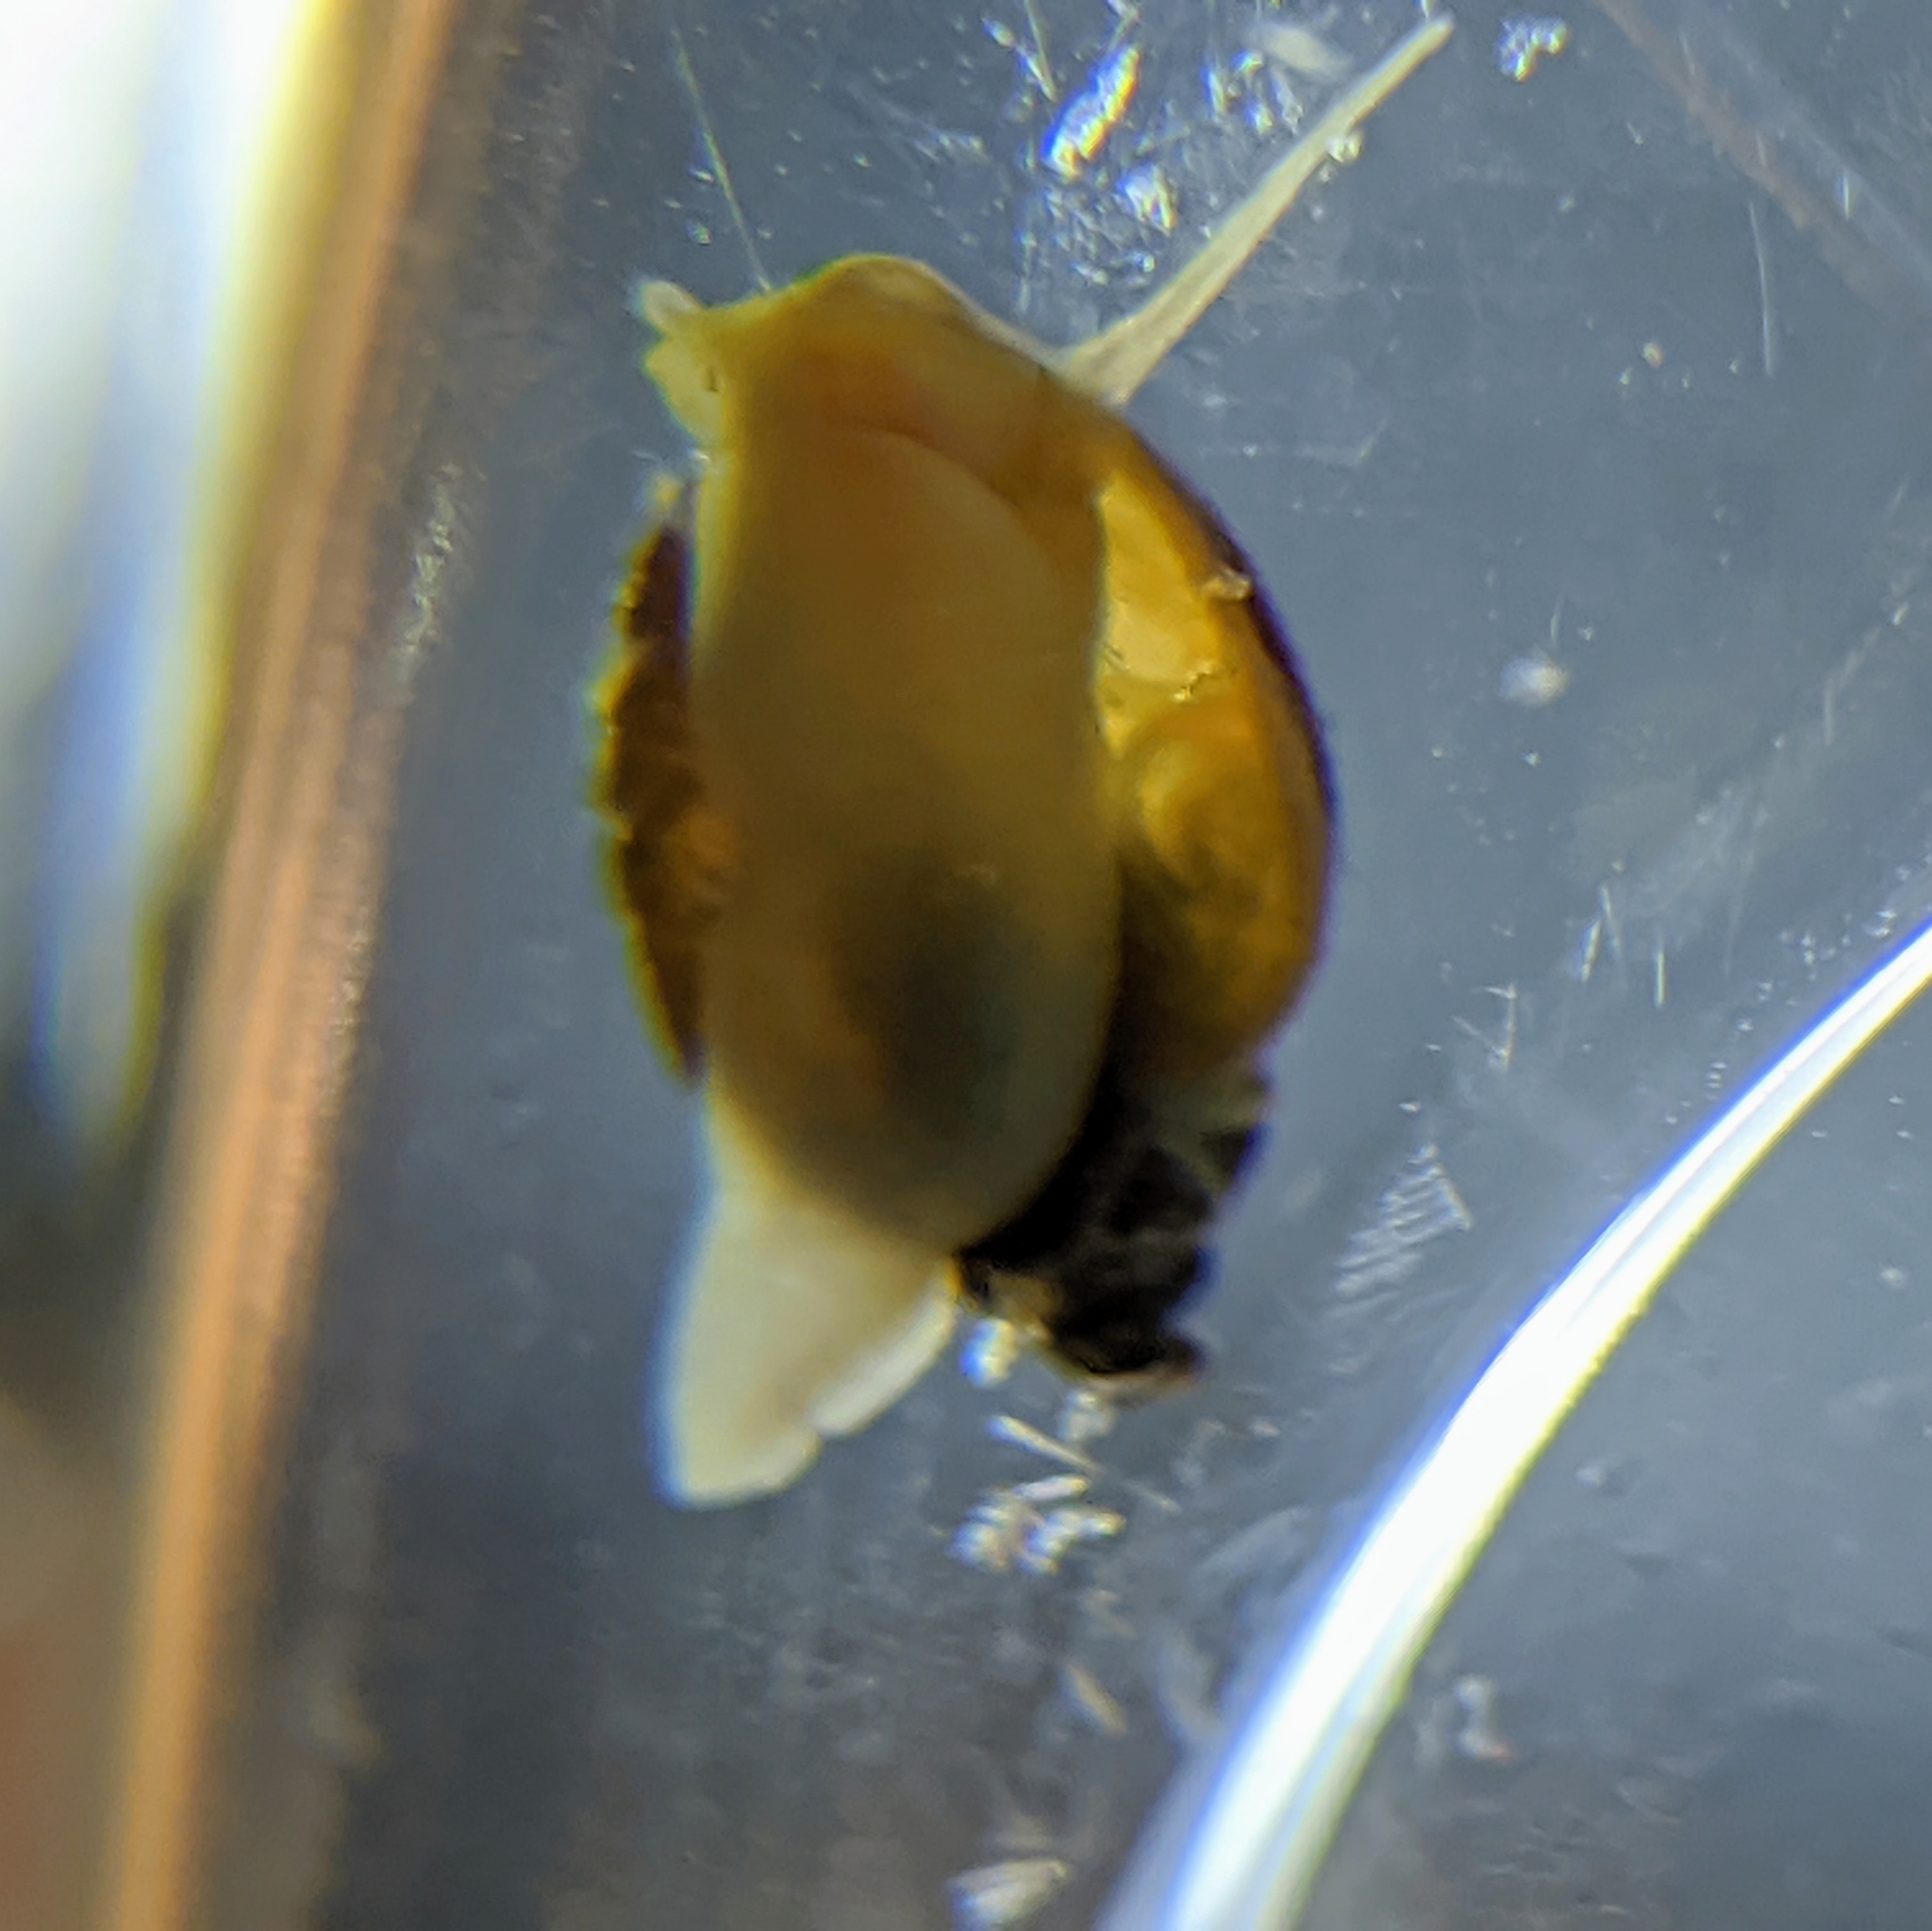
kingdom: Animalia
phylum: Mollusca
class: Gastropoda
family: Physidae
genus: Physella
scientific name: Physella acuta
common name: European physa
